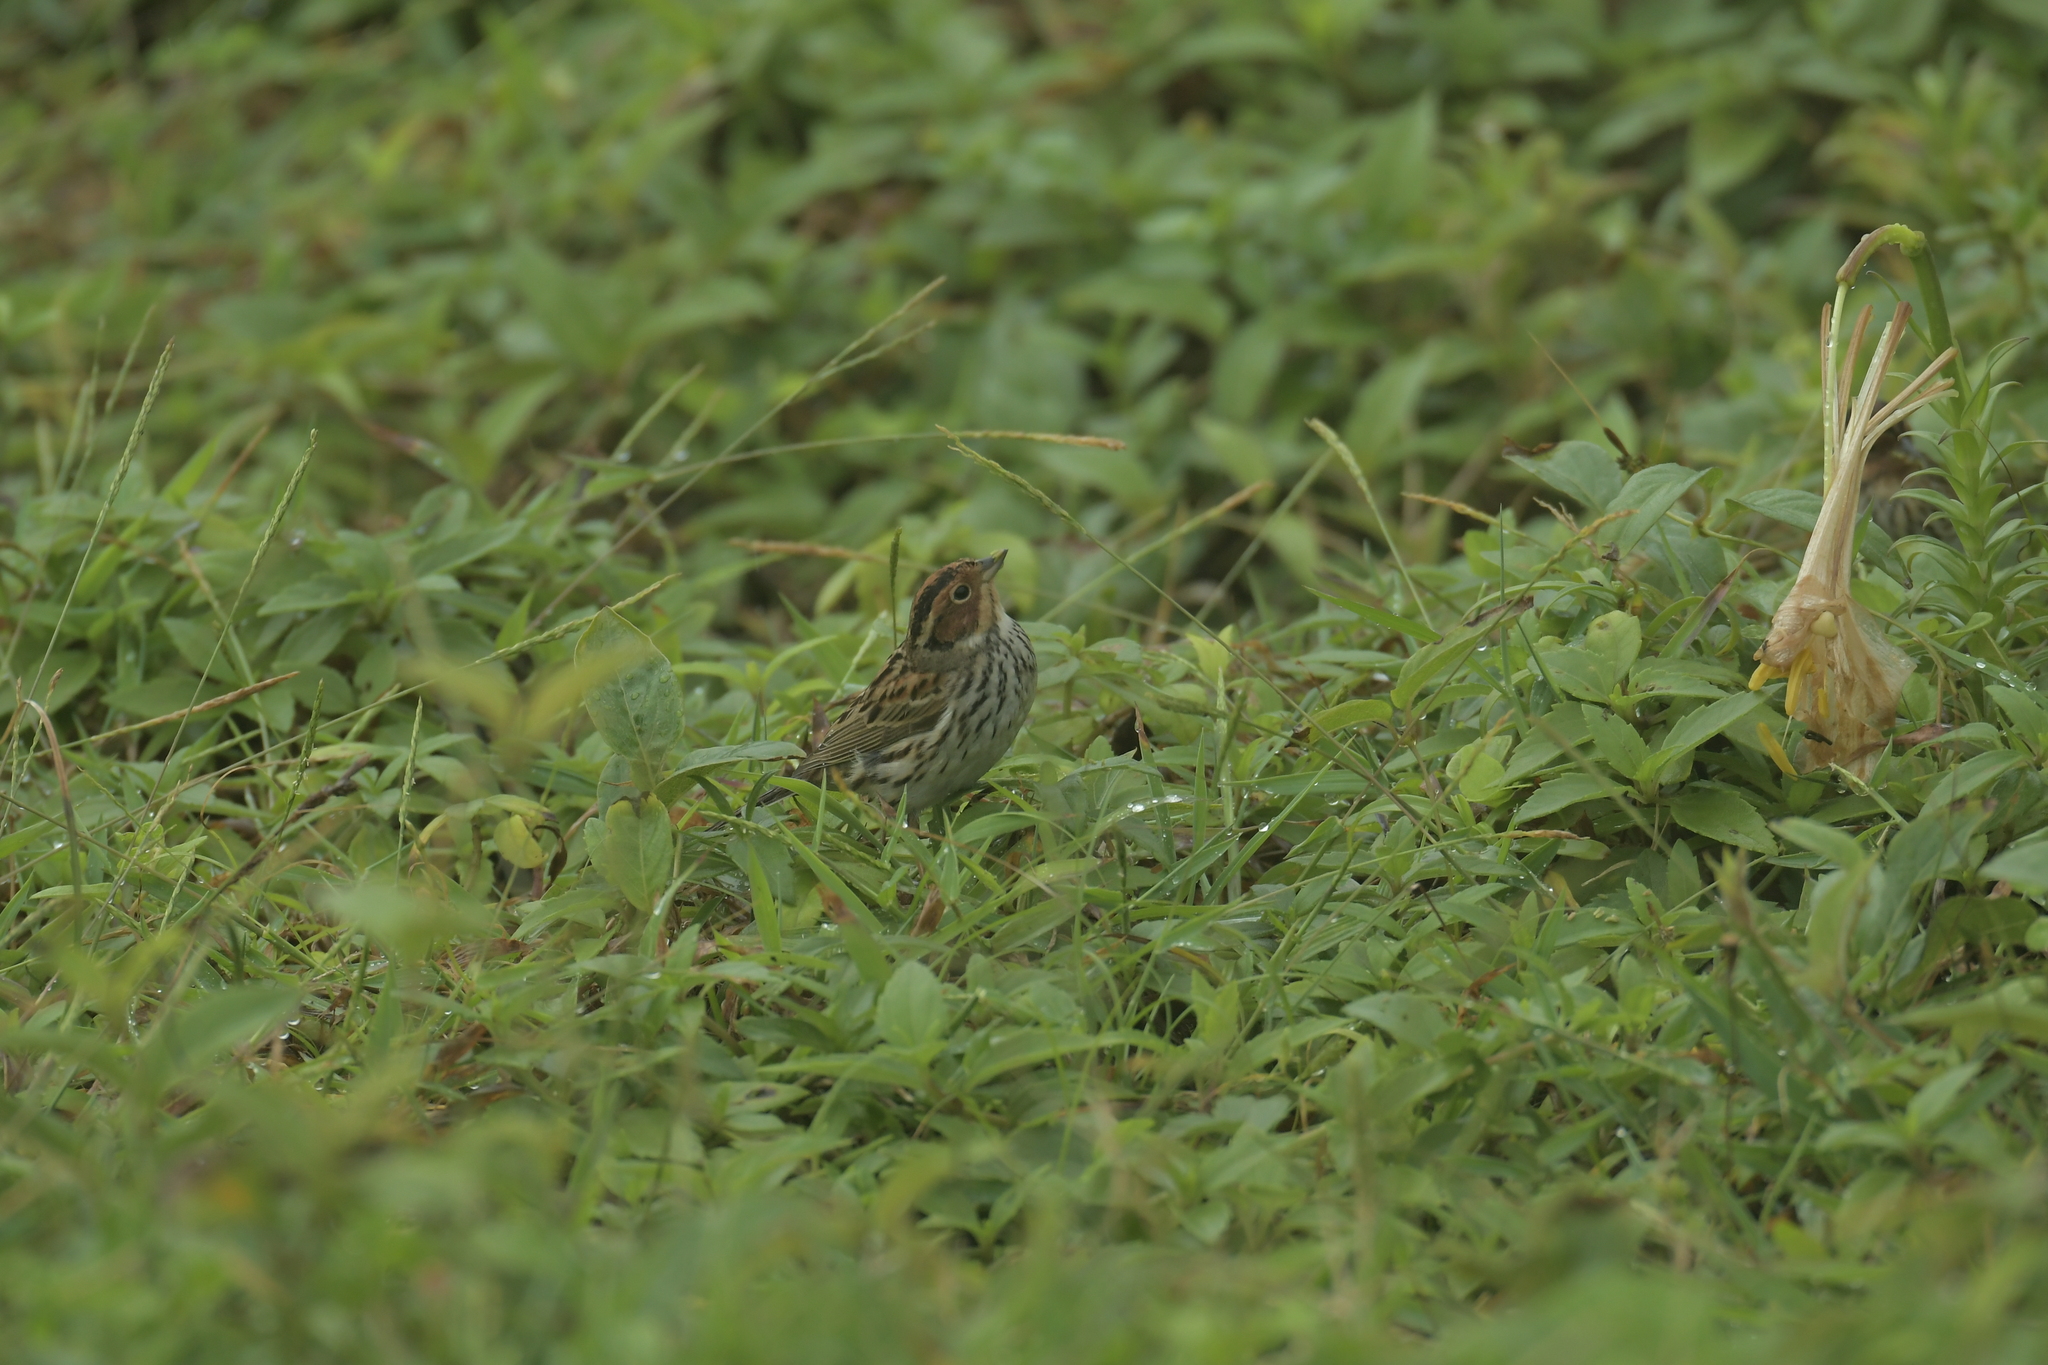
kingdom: Animalia
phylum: Chordata
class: Aves
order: Passeriformes
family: Emberizidae
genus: Emberiza
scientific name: Emberiza pusilla
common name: Little bunting
